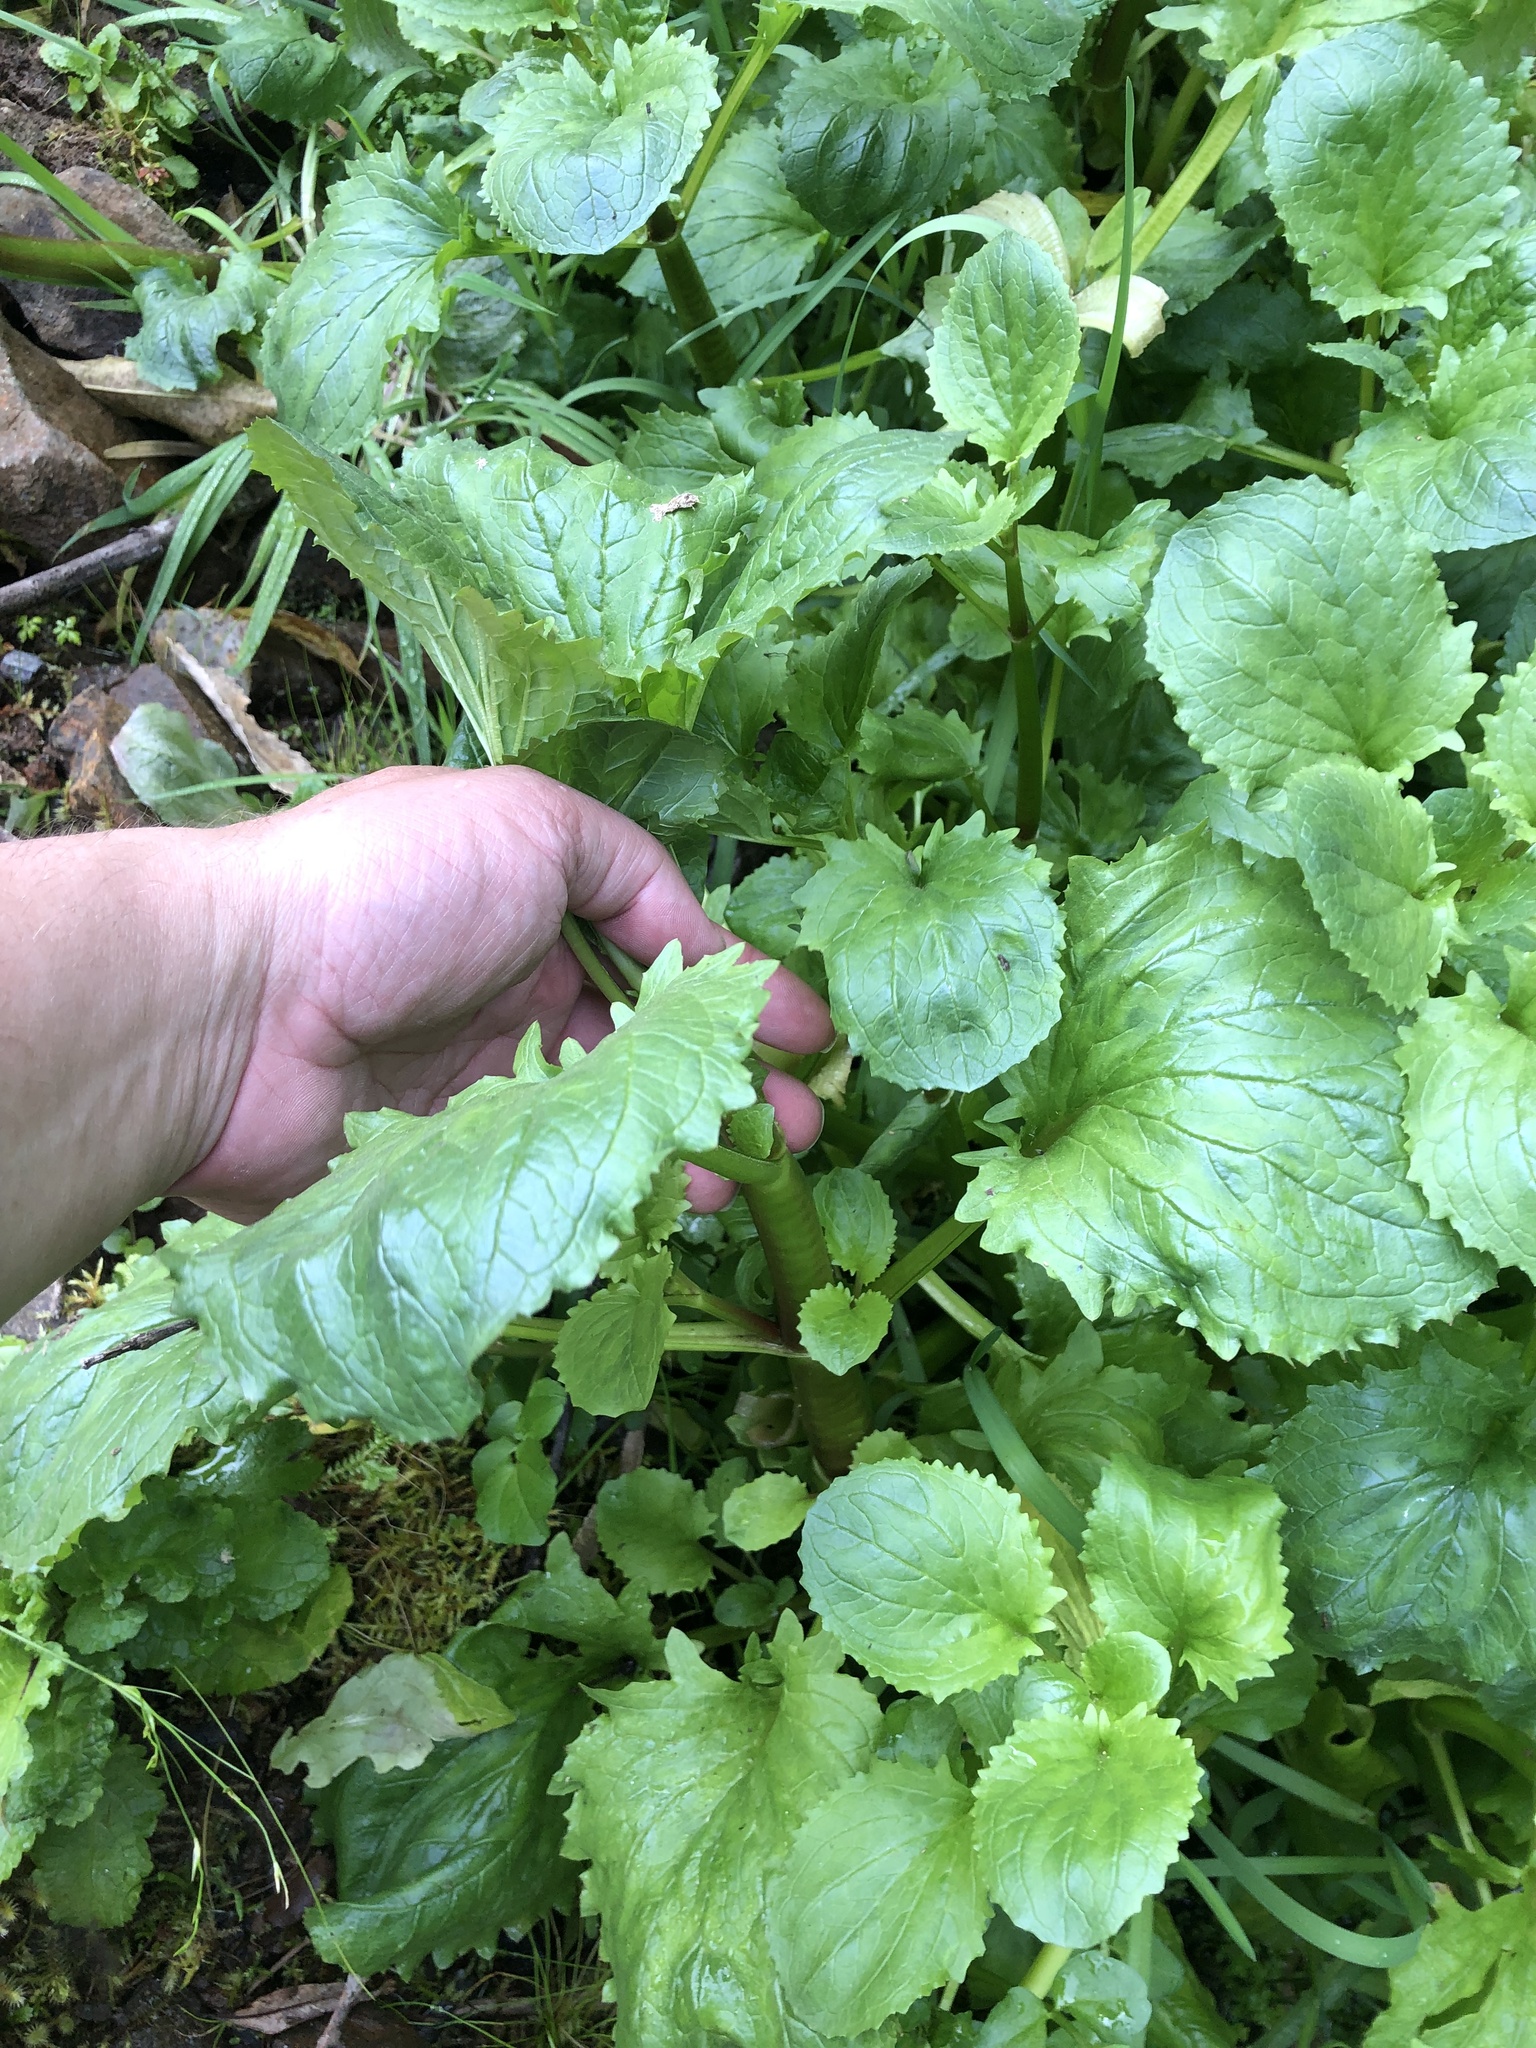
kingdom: Plantae
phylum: Tracheophyta
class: Magnoliopsida
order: Lamiales
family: Phrymaceae
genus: Erythranthe
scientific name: Erythranthe guttata
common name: Monkeyflower
